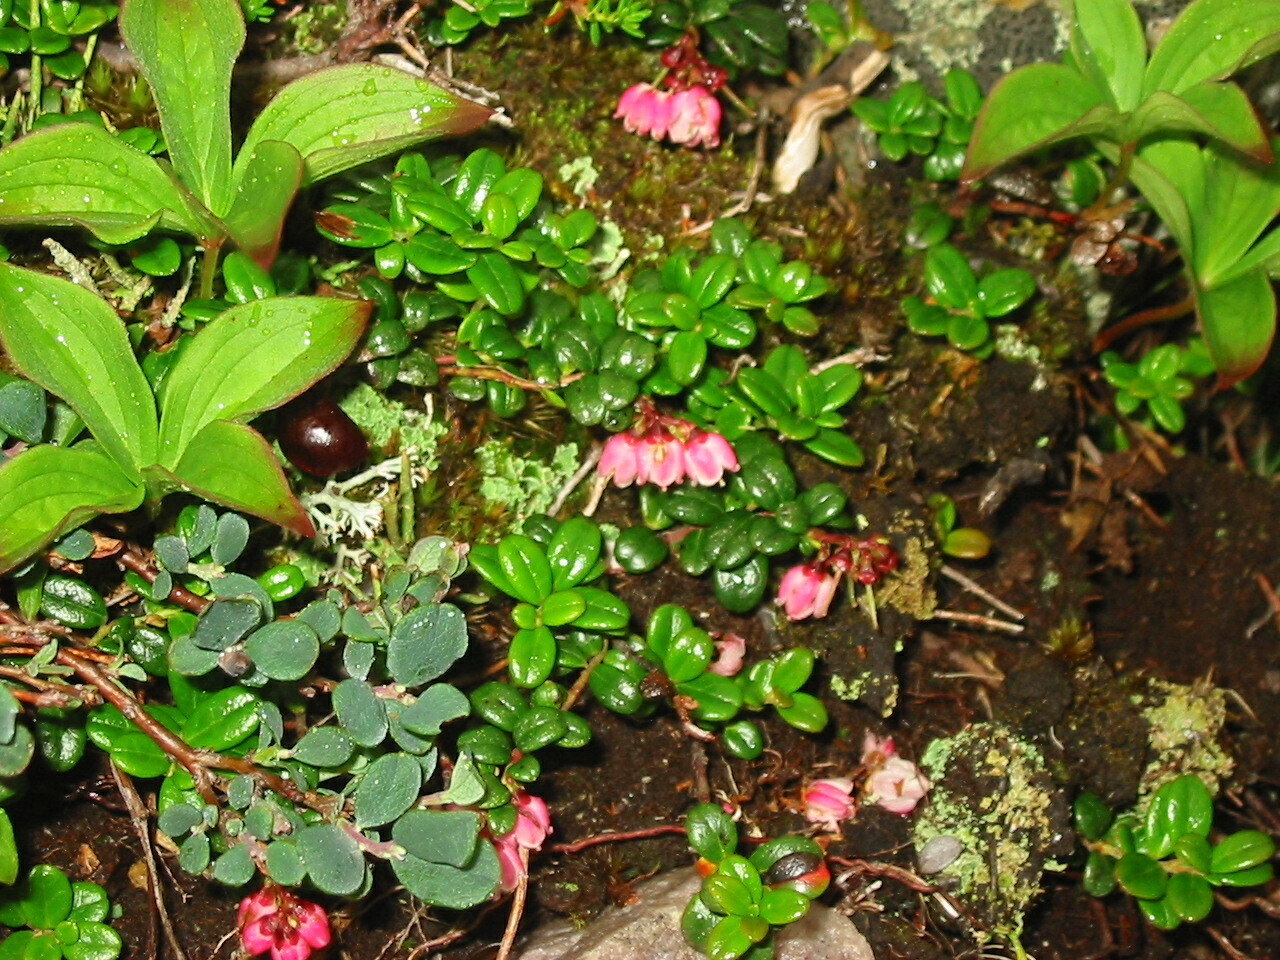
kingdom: Plantae
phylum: Tracheophyta
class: Magnoliopsida
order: Ericales
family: Ericaceae
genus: Vaccinium
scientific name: Vaccinium vitis-idaea
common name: Cowberry
